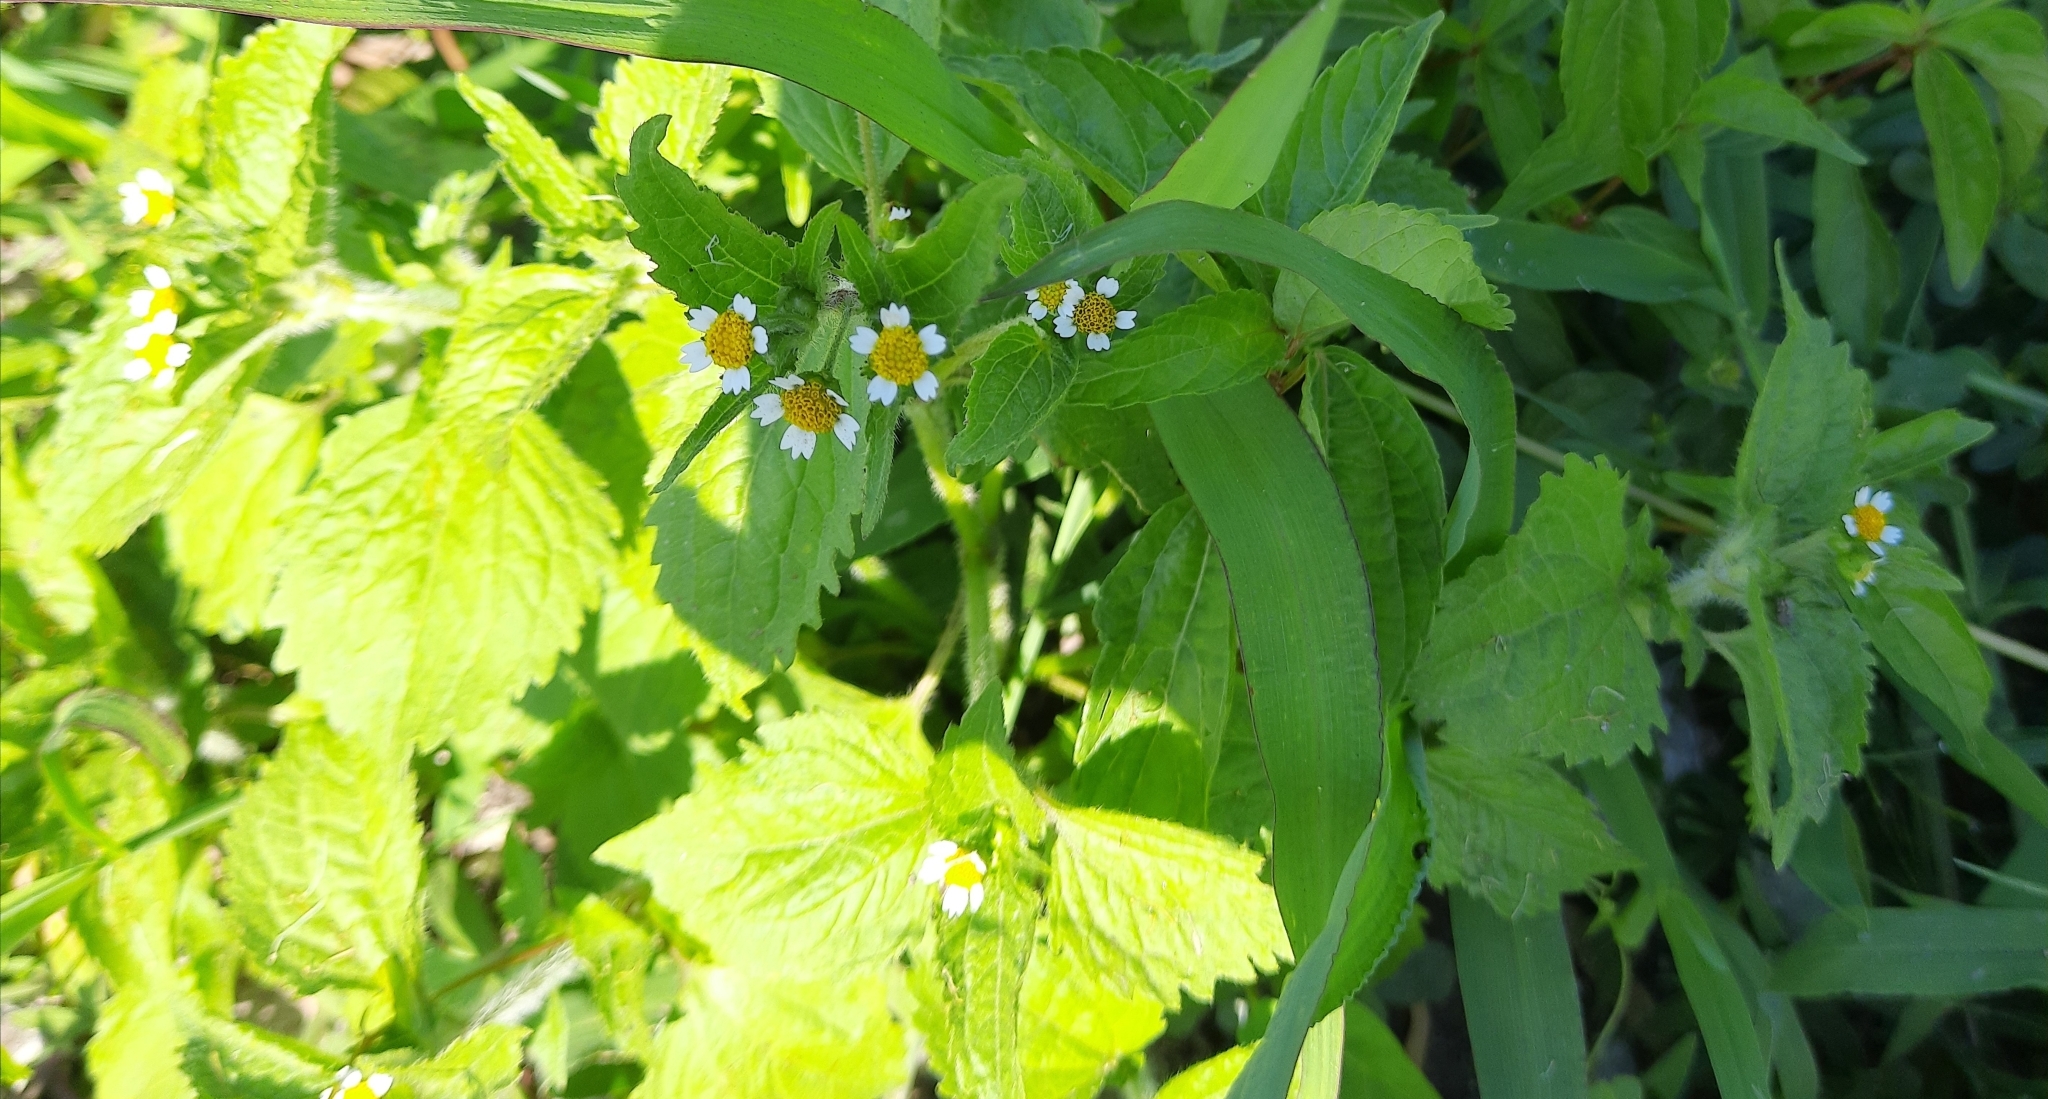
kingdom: Plantae
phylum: Tracheophyta
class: Magnoliopsida
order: Asterales
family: Asteraceae
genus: Galinsoga
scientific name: Galinsoga quadriradiata
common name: Shaggy soldier
